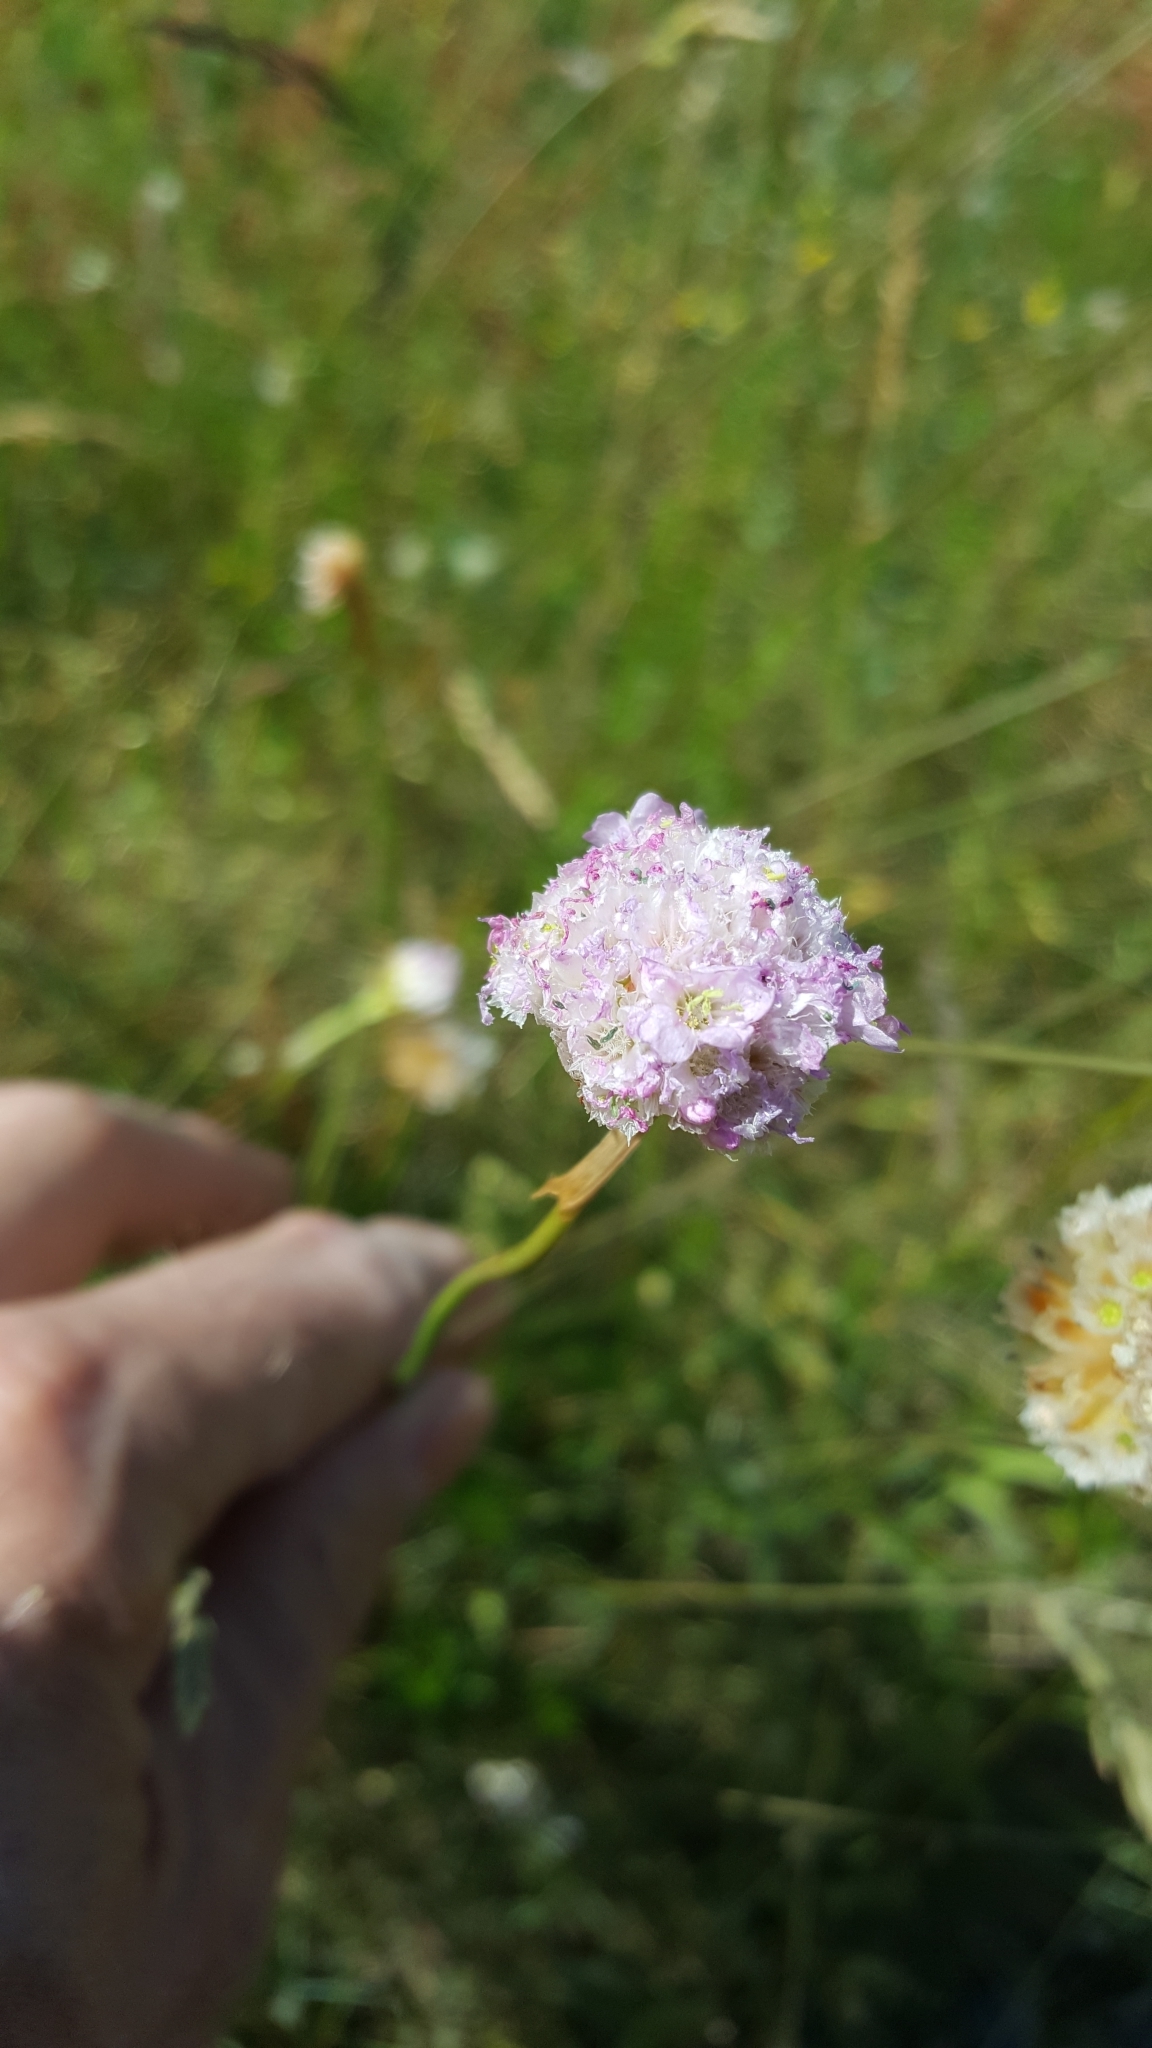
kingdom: Plantae
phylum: Tracheophyta
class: Magnoliopsida
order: Caryophyllales
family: Plumbaginaceae
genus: Armeria
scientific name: Armeria maritima
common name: Thrift
